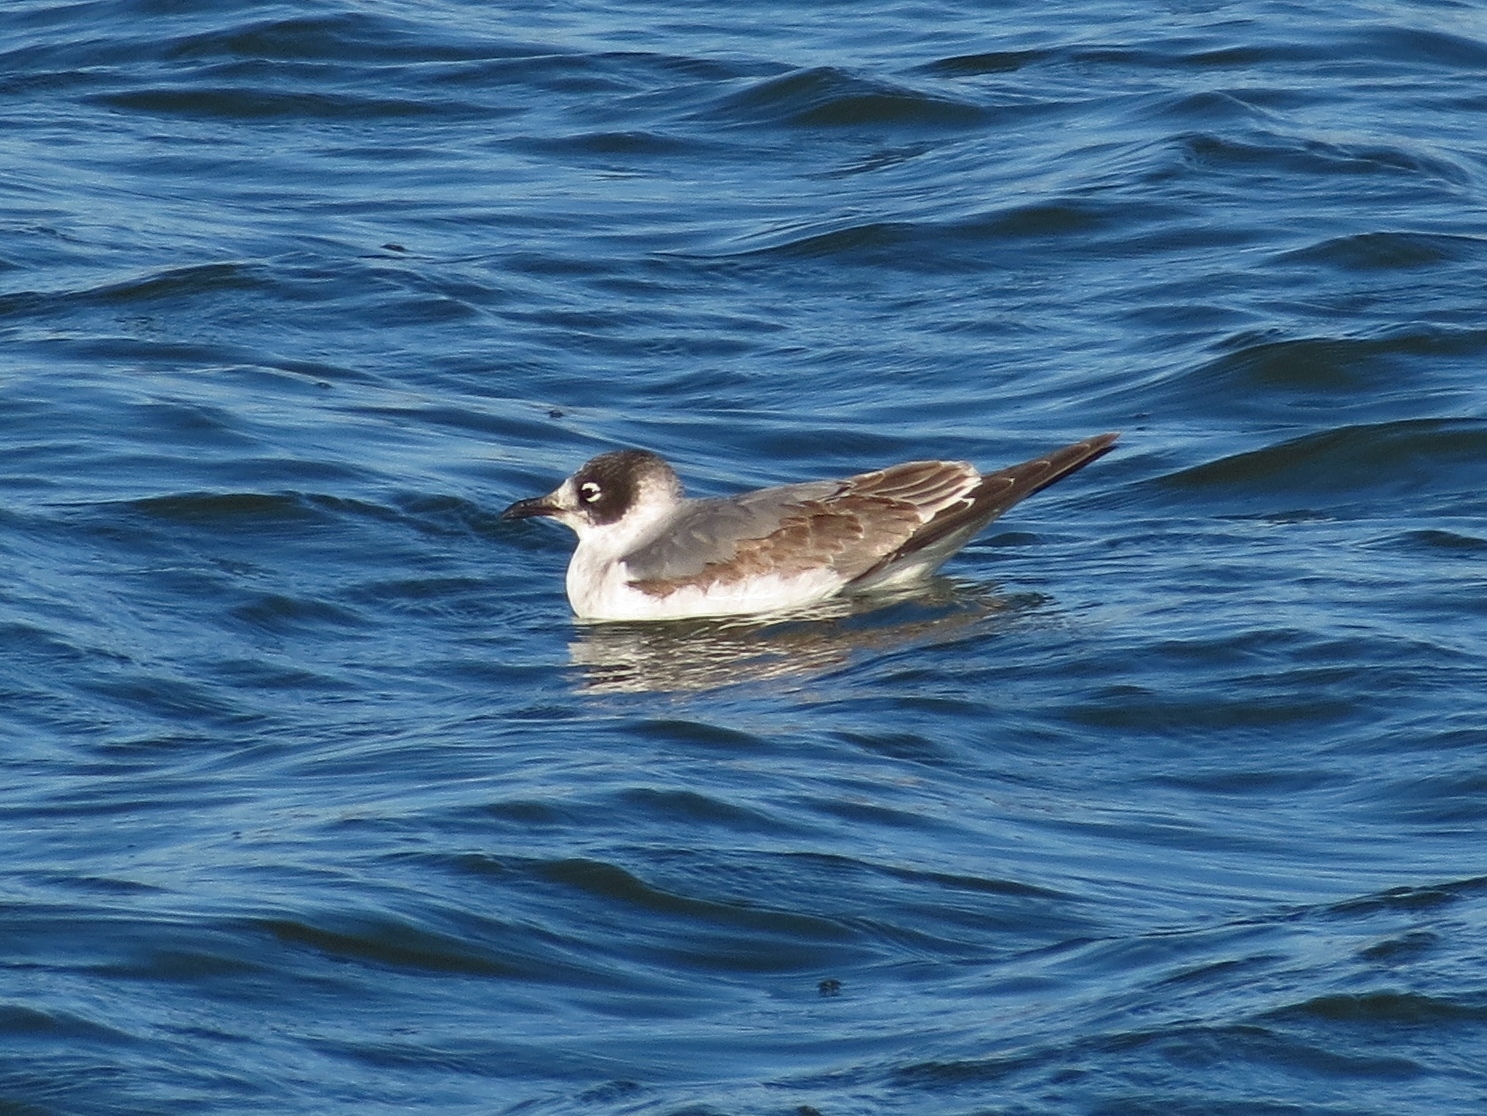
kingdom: Animalia
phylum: Chordata
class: Aves
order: Charadriiformes
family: Laridae
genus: Leucophaeus
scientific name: Leucophaeus pipixcan
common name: Franklin's gull
